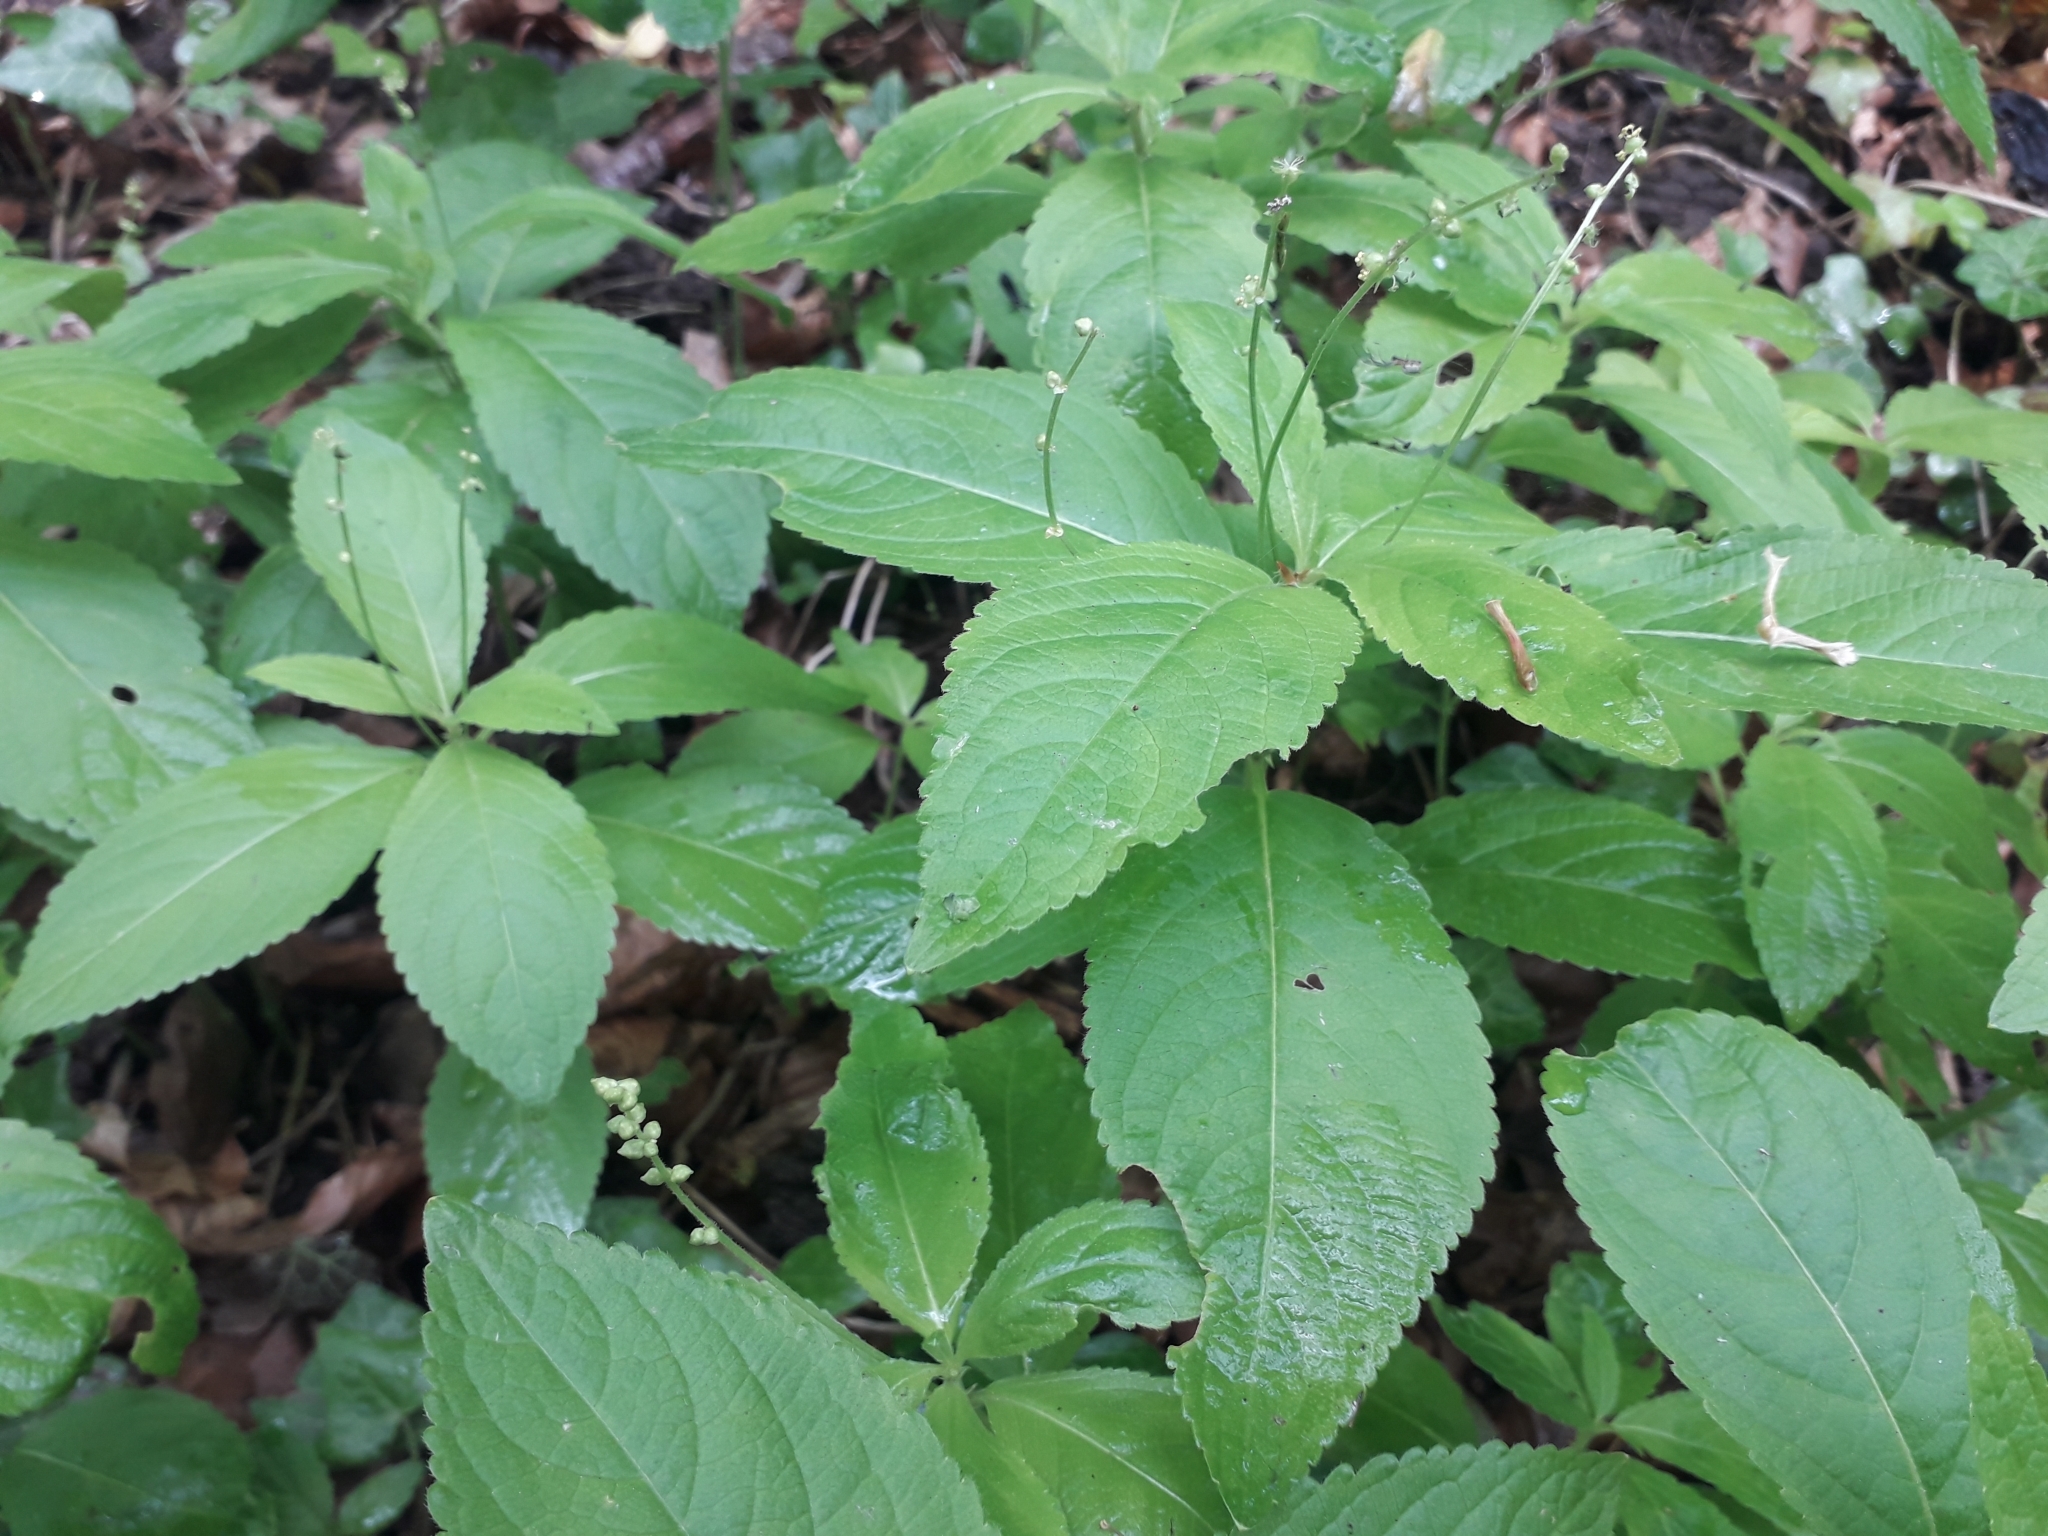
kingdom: Plantae
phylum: Tracheophyta
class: Magnoliopsida
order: Malpighiales
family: Euphorbiaceae
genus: Mercurialis
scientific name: Mercurialis perennis
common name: Dog mercury
